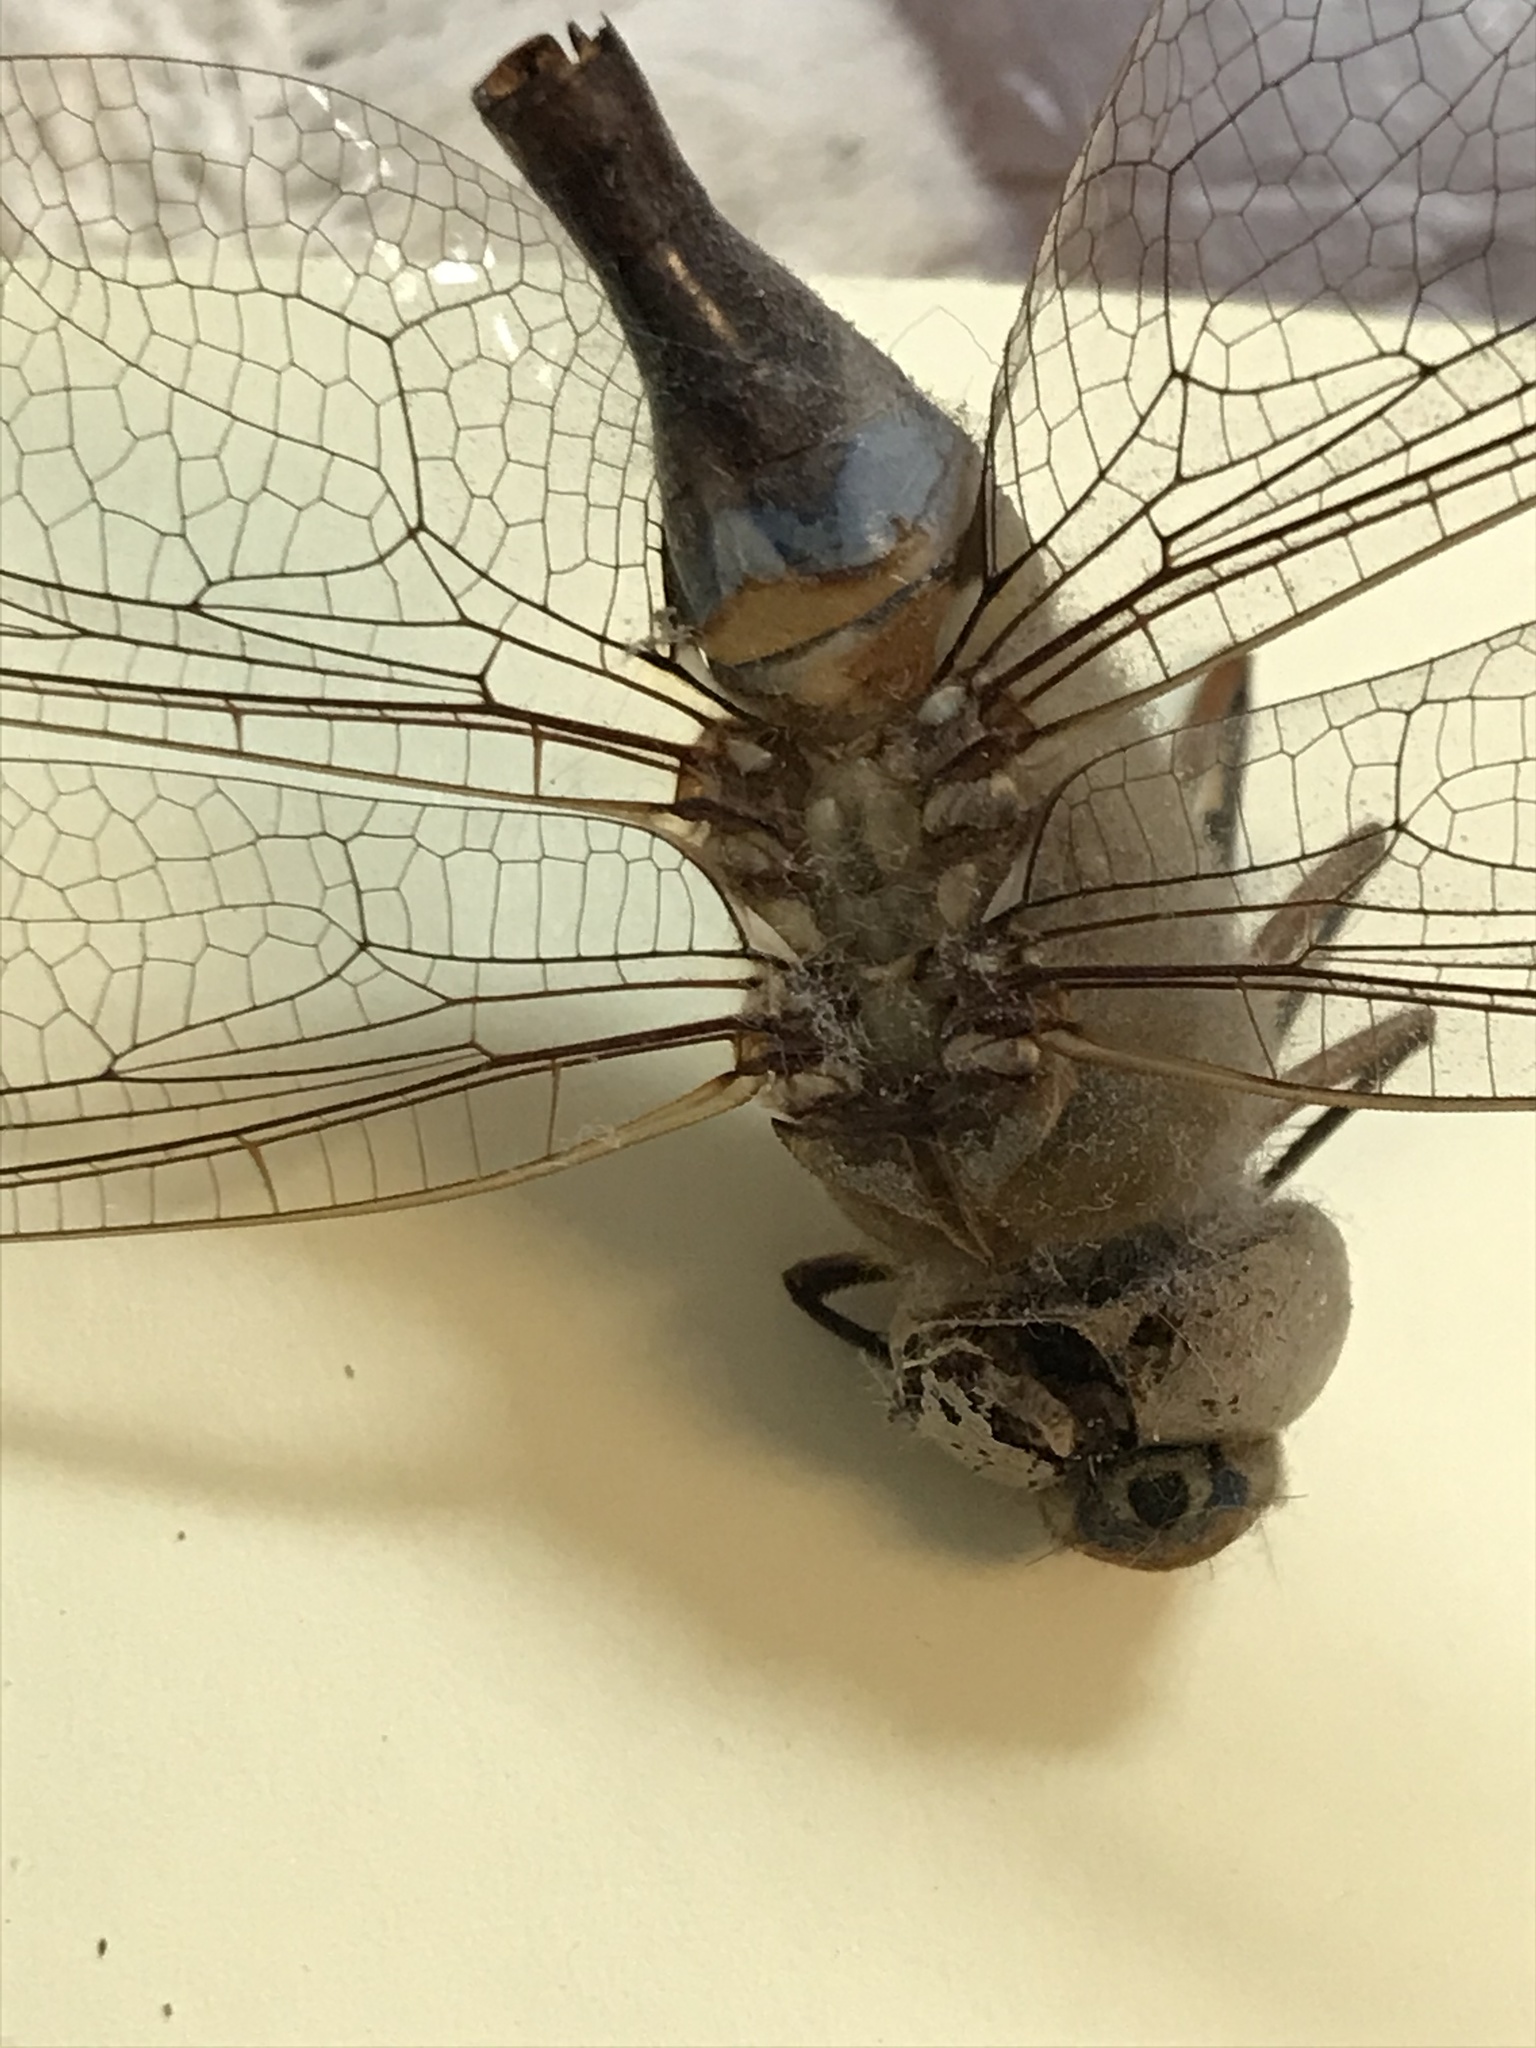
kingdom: Animalia
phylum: Arthropoda
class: Insecta
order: Odonata
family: Aeshnidae
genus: Anax
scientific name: Anax junius
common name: Common green darner
